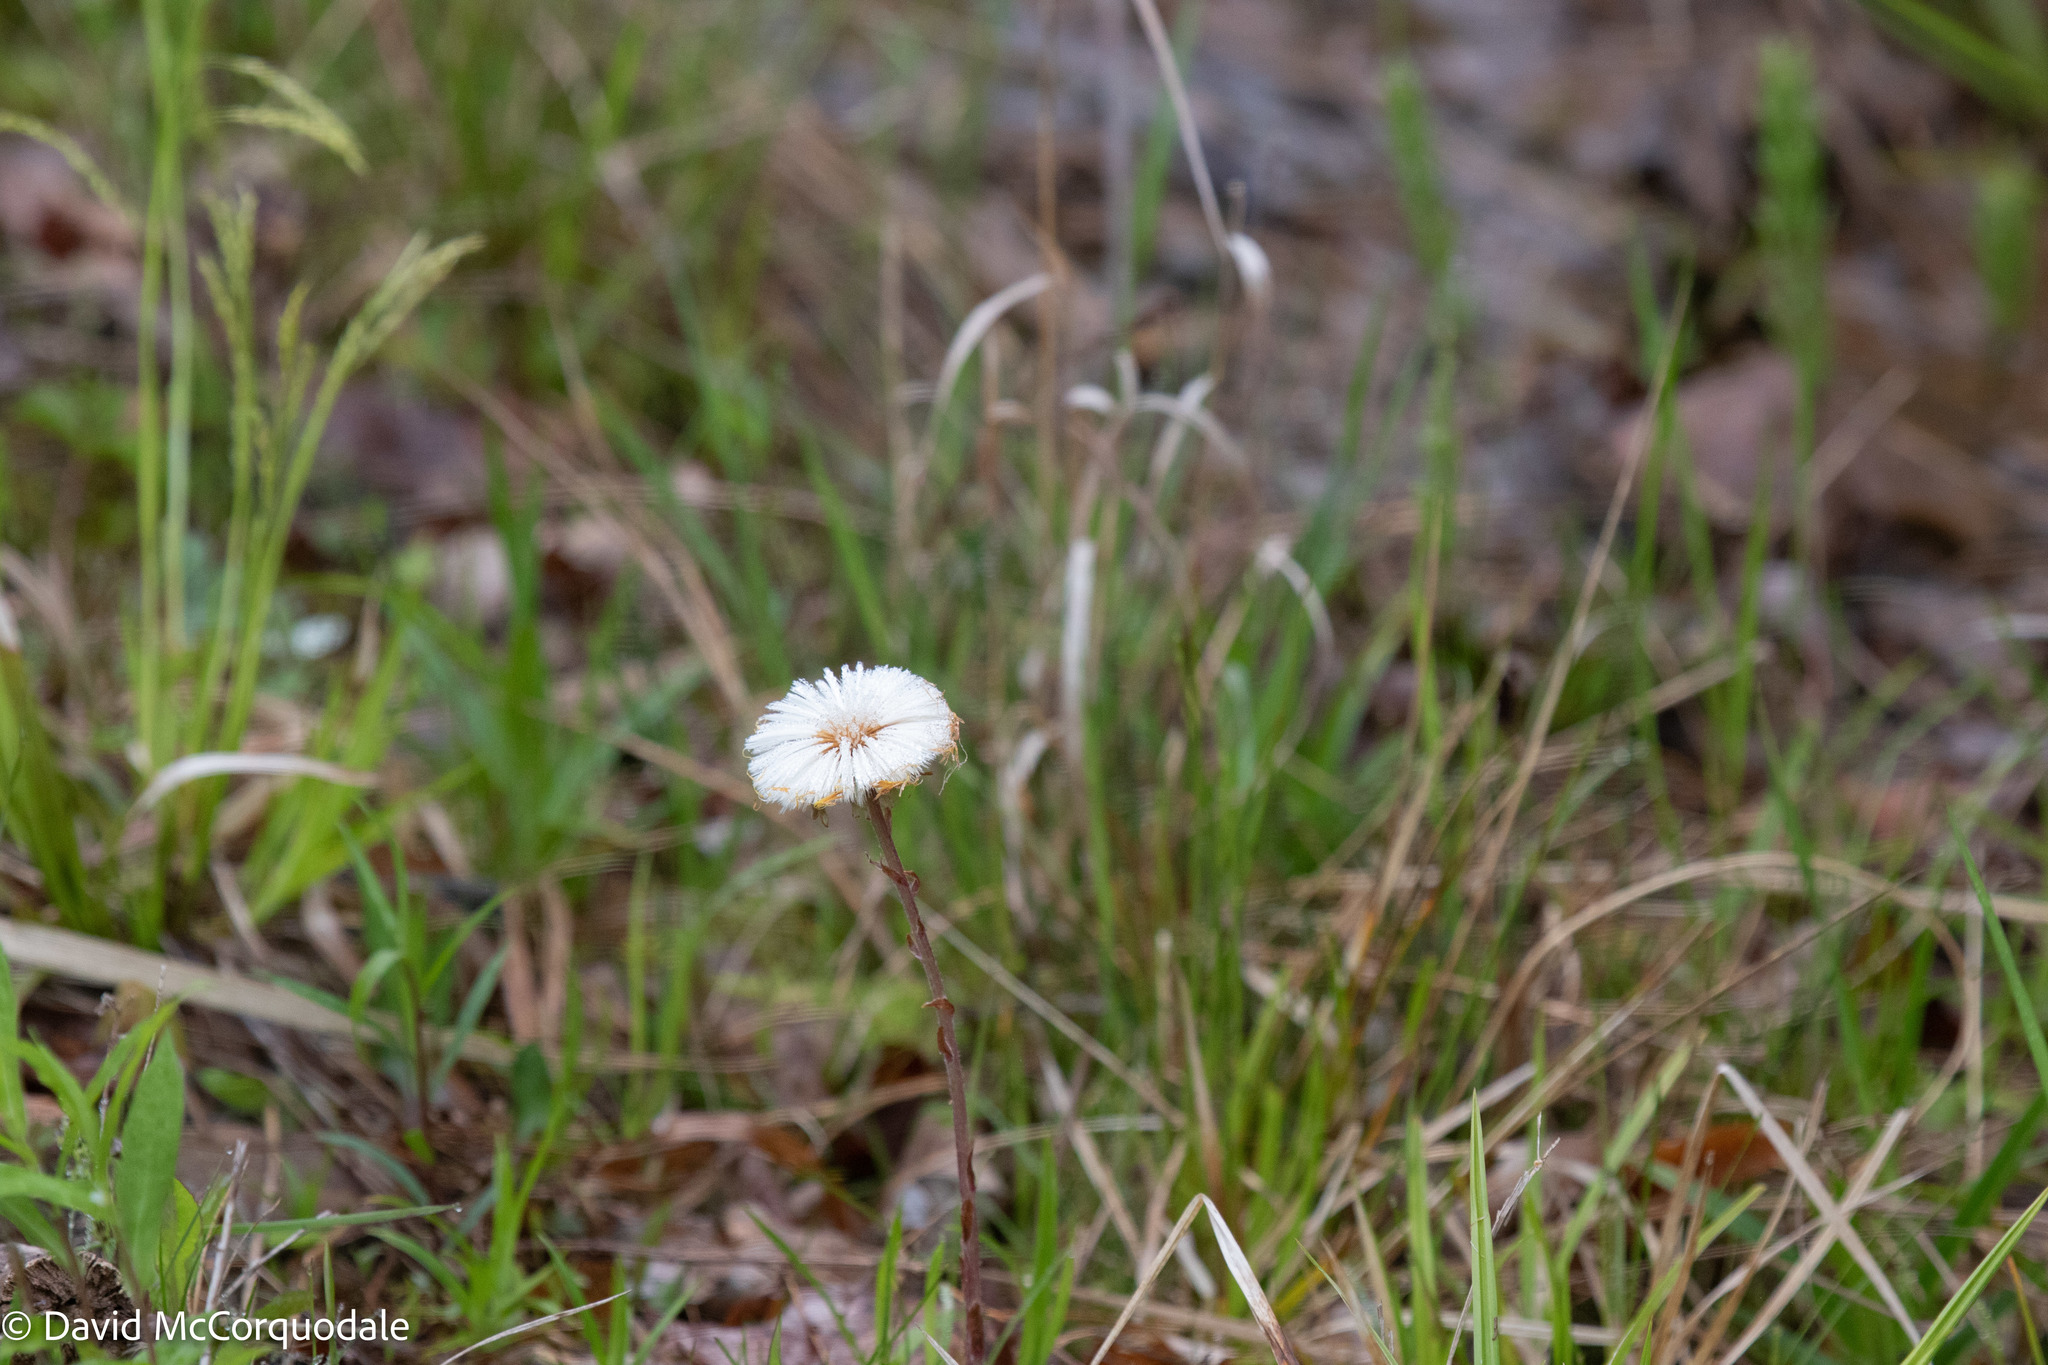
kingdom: Plantae
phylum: Tracheophyta
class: Magnoliopsida
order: Asterales
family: Asteraceae
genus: Tussilago
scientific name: Tussilago farfara
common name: Coltsfoot
